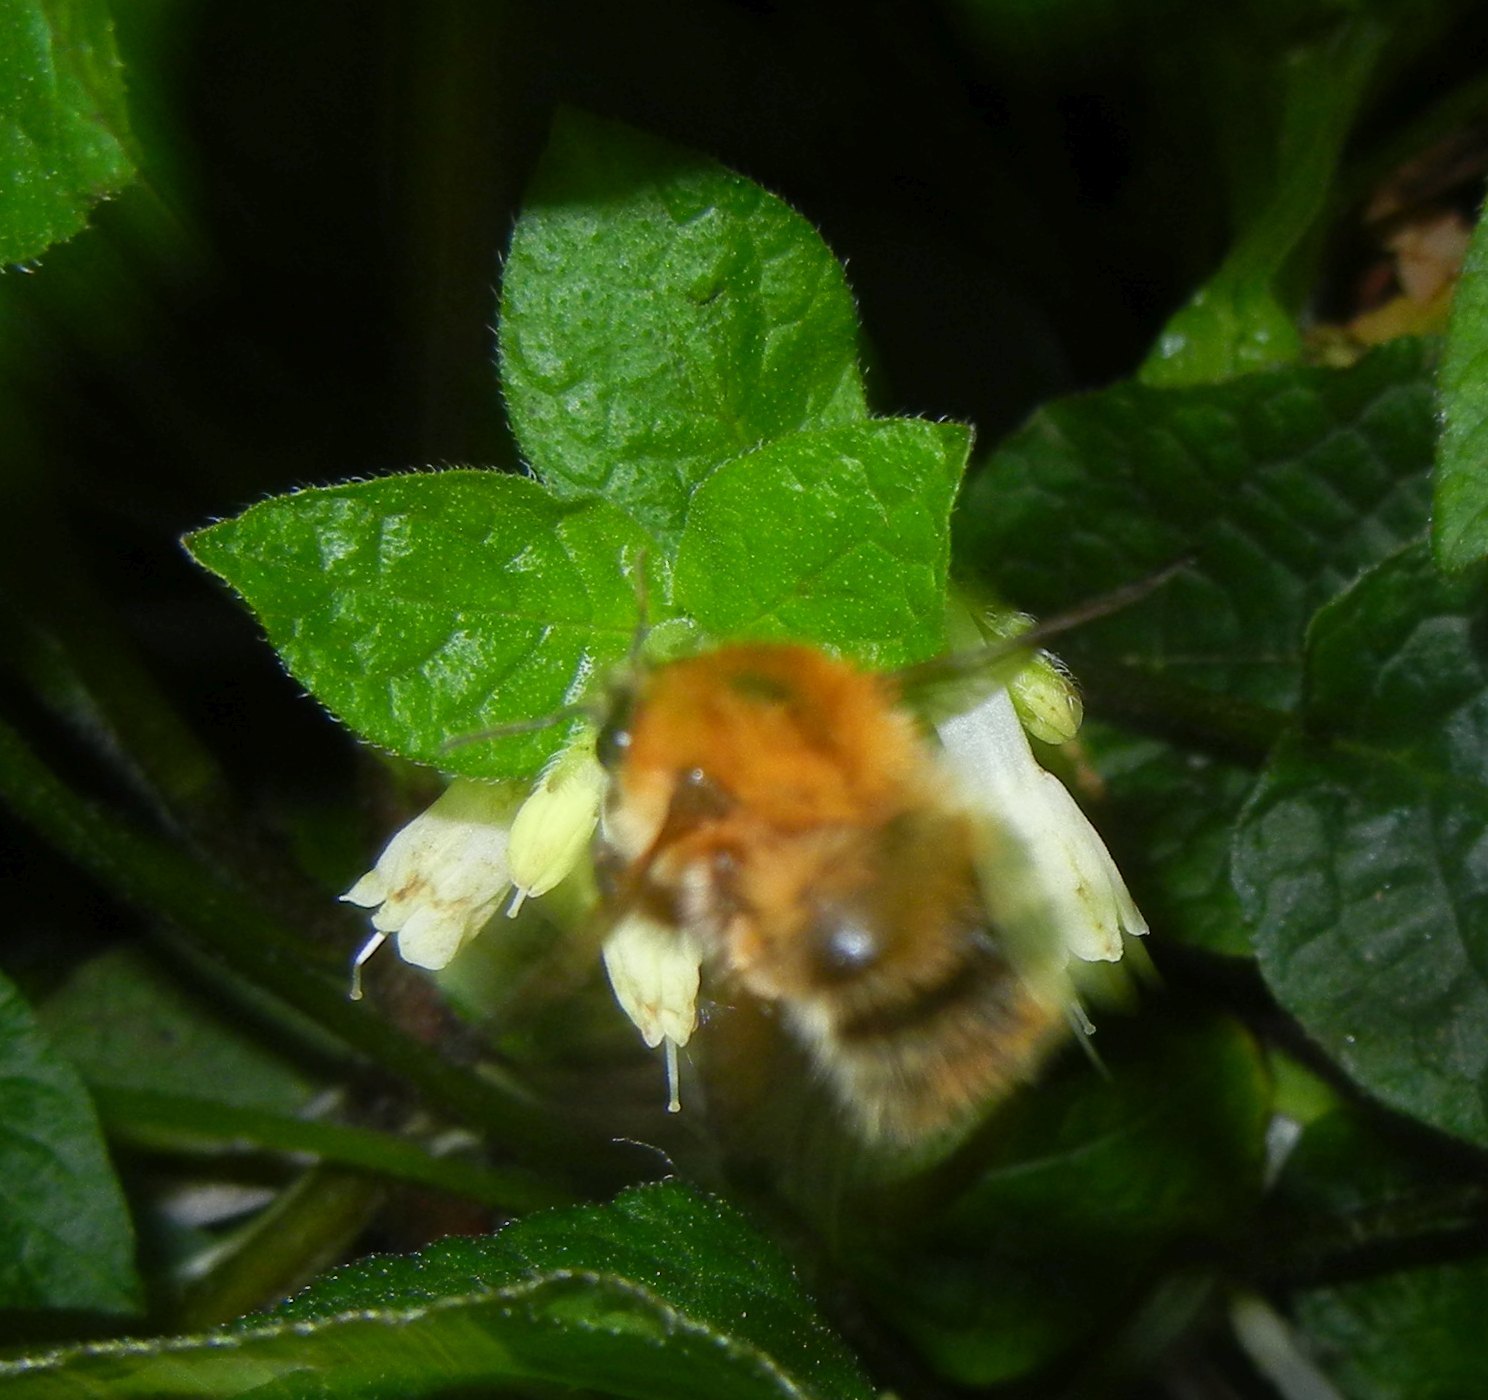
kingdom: Animalia
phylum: Arthropoda
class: Insecta
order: Hymenoptera
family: Apidae
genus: Bombus
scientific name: Bombus pascuorum
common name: Common carder bee
